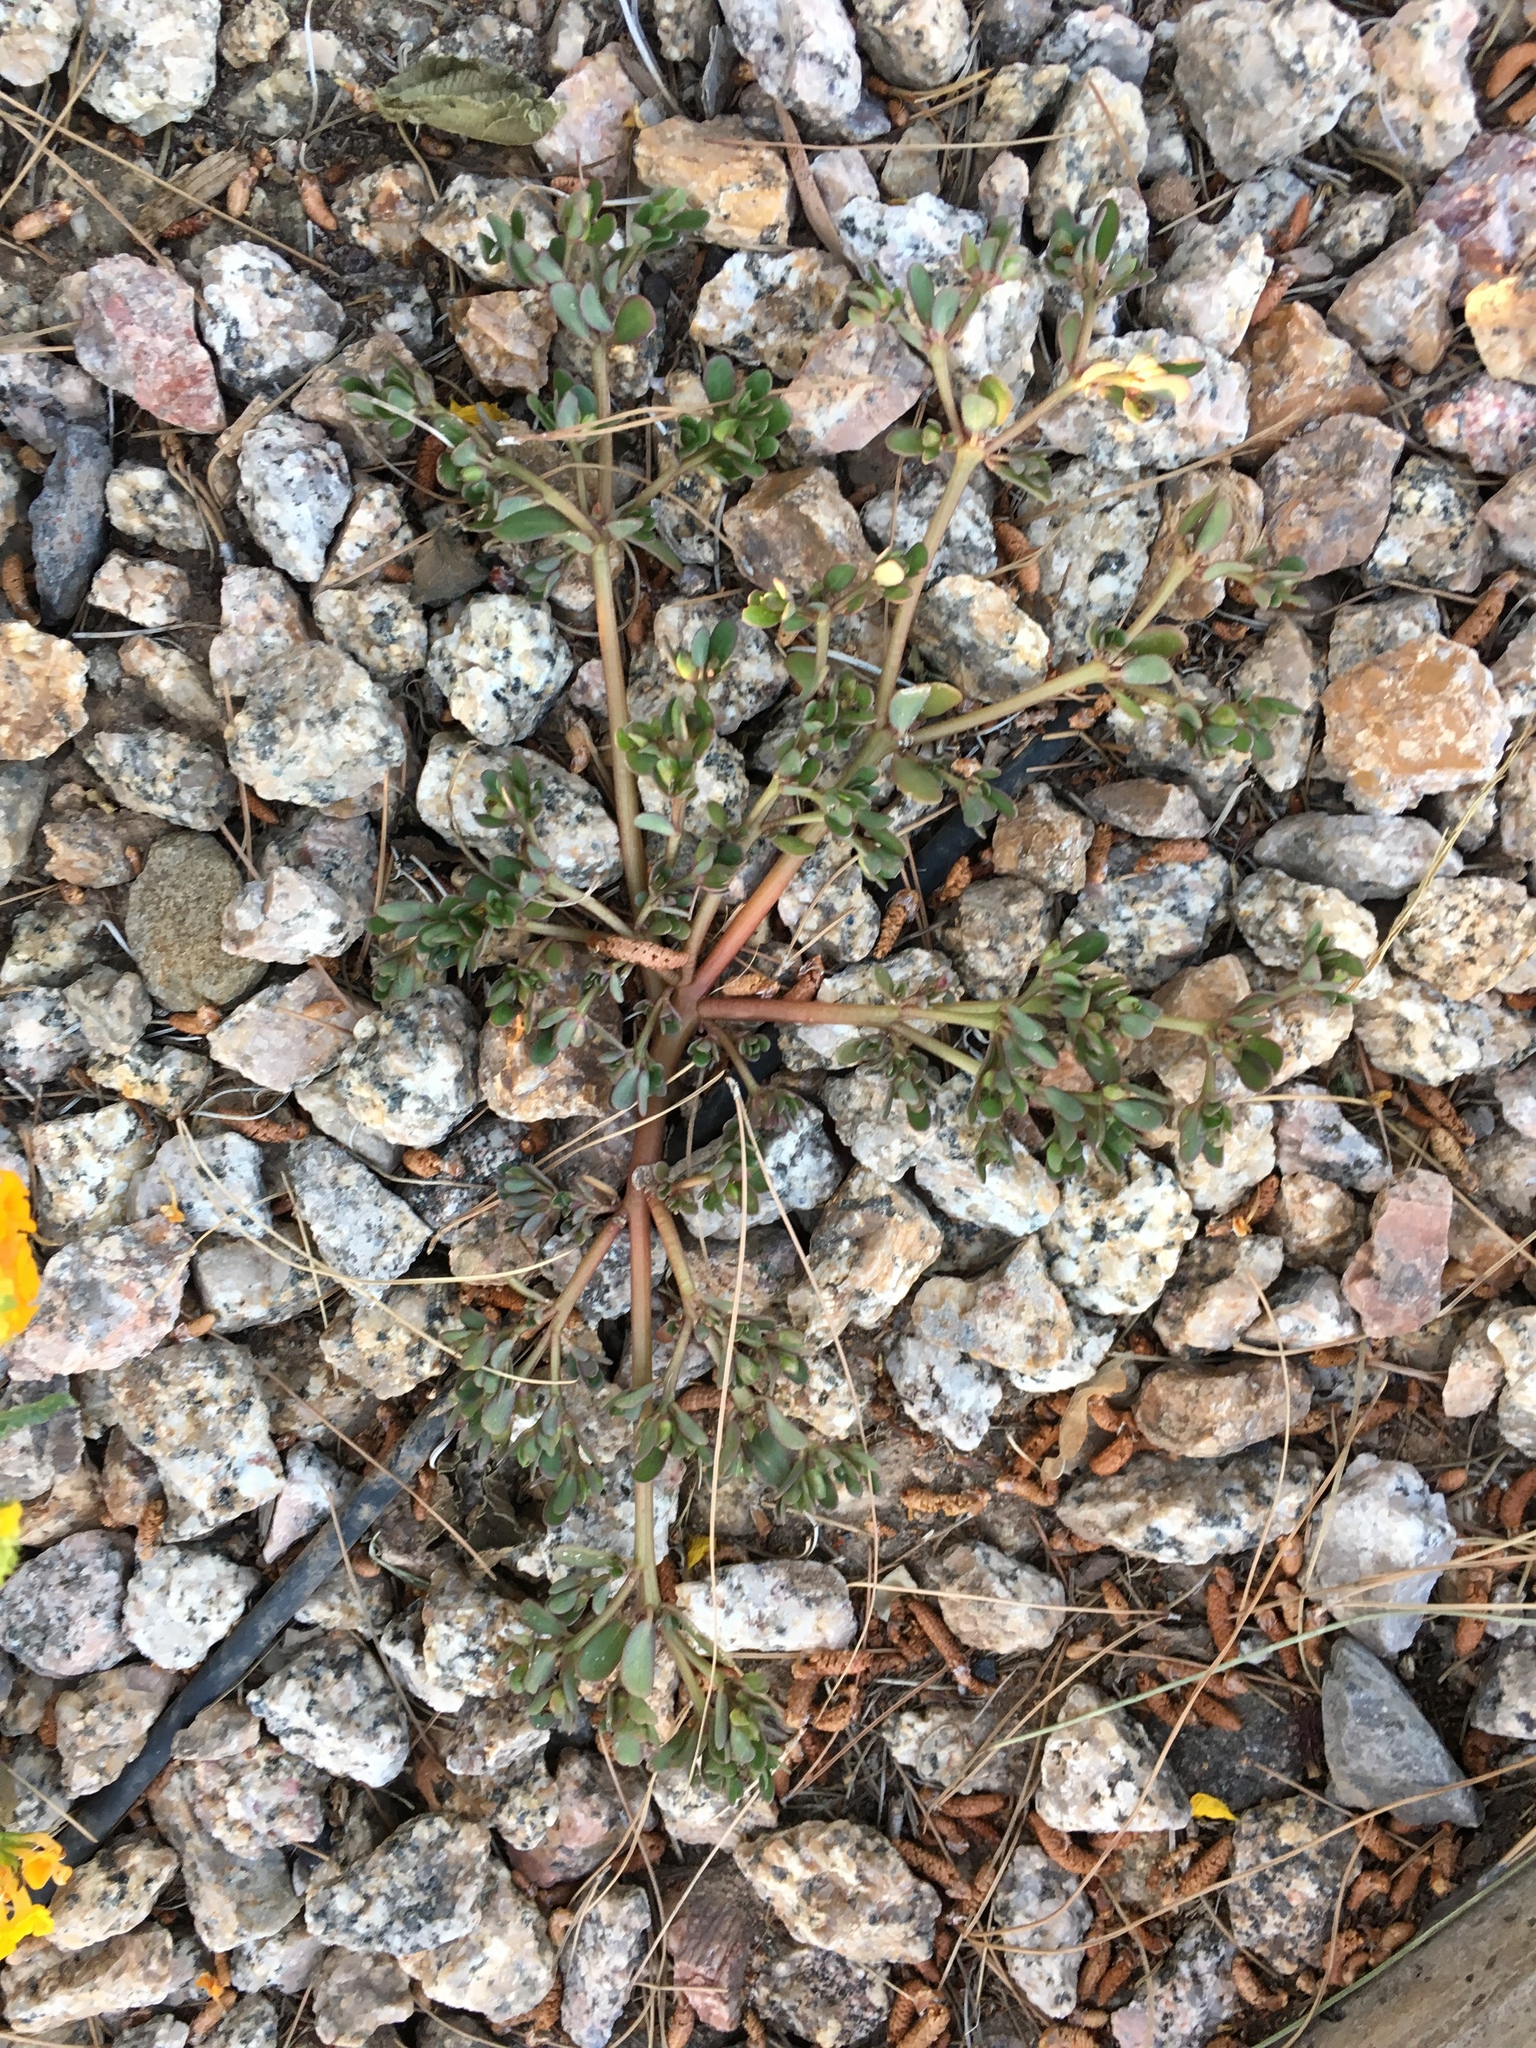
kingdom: Plantae
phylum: Tracheophyta
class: Magnoliopsida
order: Caryophyllales
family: Portulacaceae
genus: Portulaca
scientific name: Portulaca oleracea
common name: Common purslane
